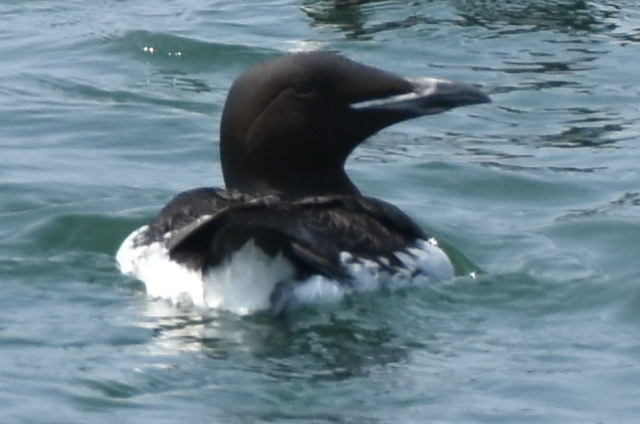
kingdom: Animalia
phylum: Chordata
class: Aves
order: Charadriiformes
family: Alcidae
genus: Uria
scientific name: Uria lomvia
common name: Thick-billed murre
